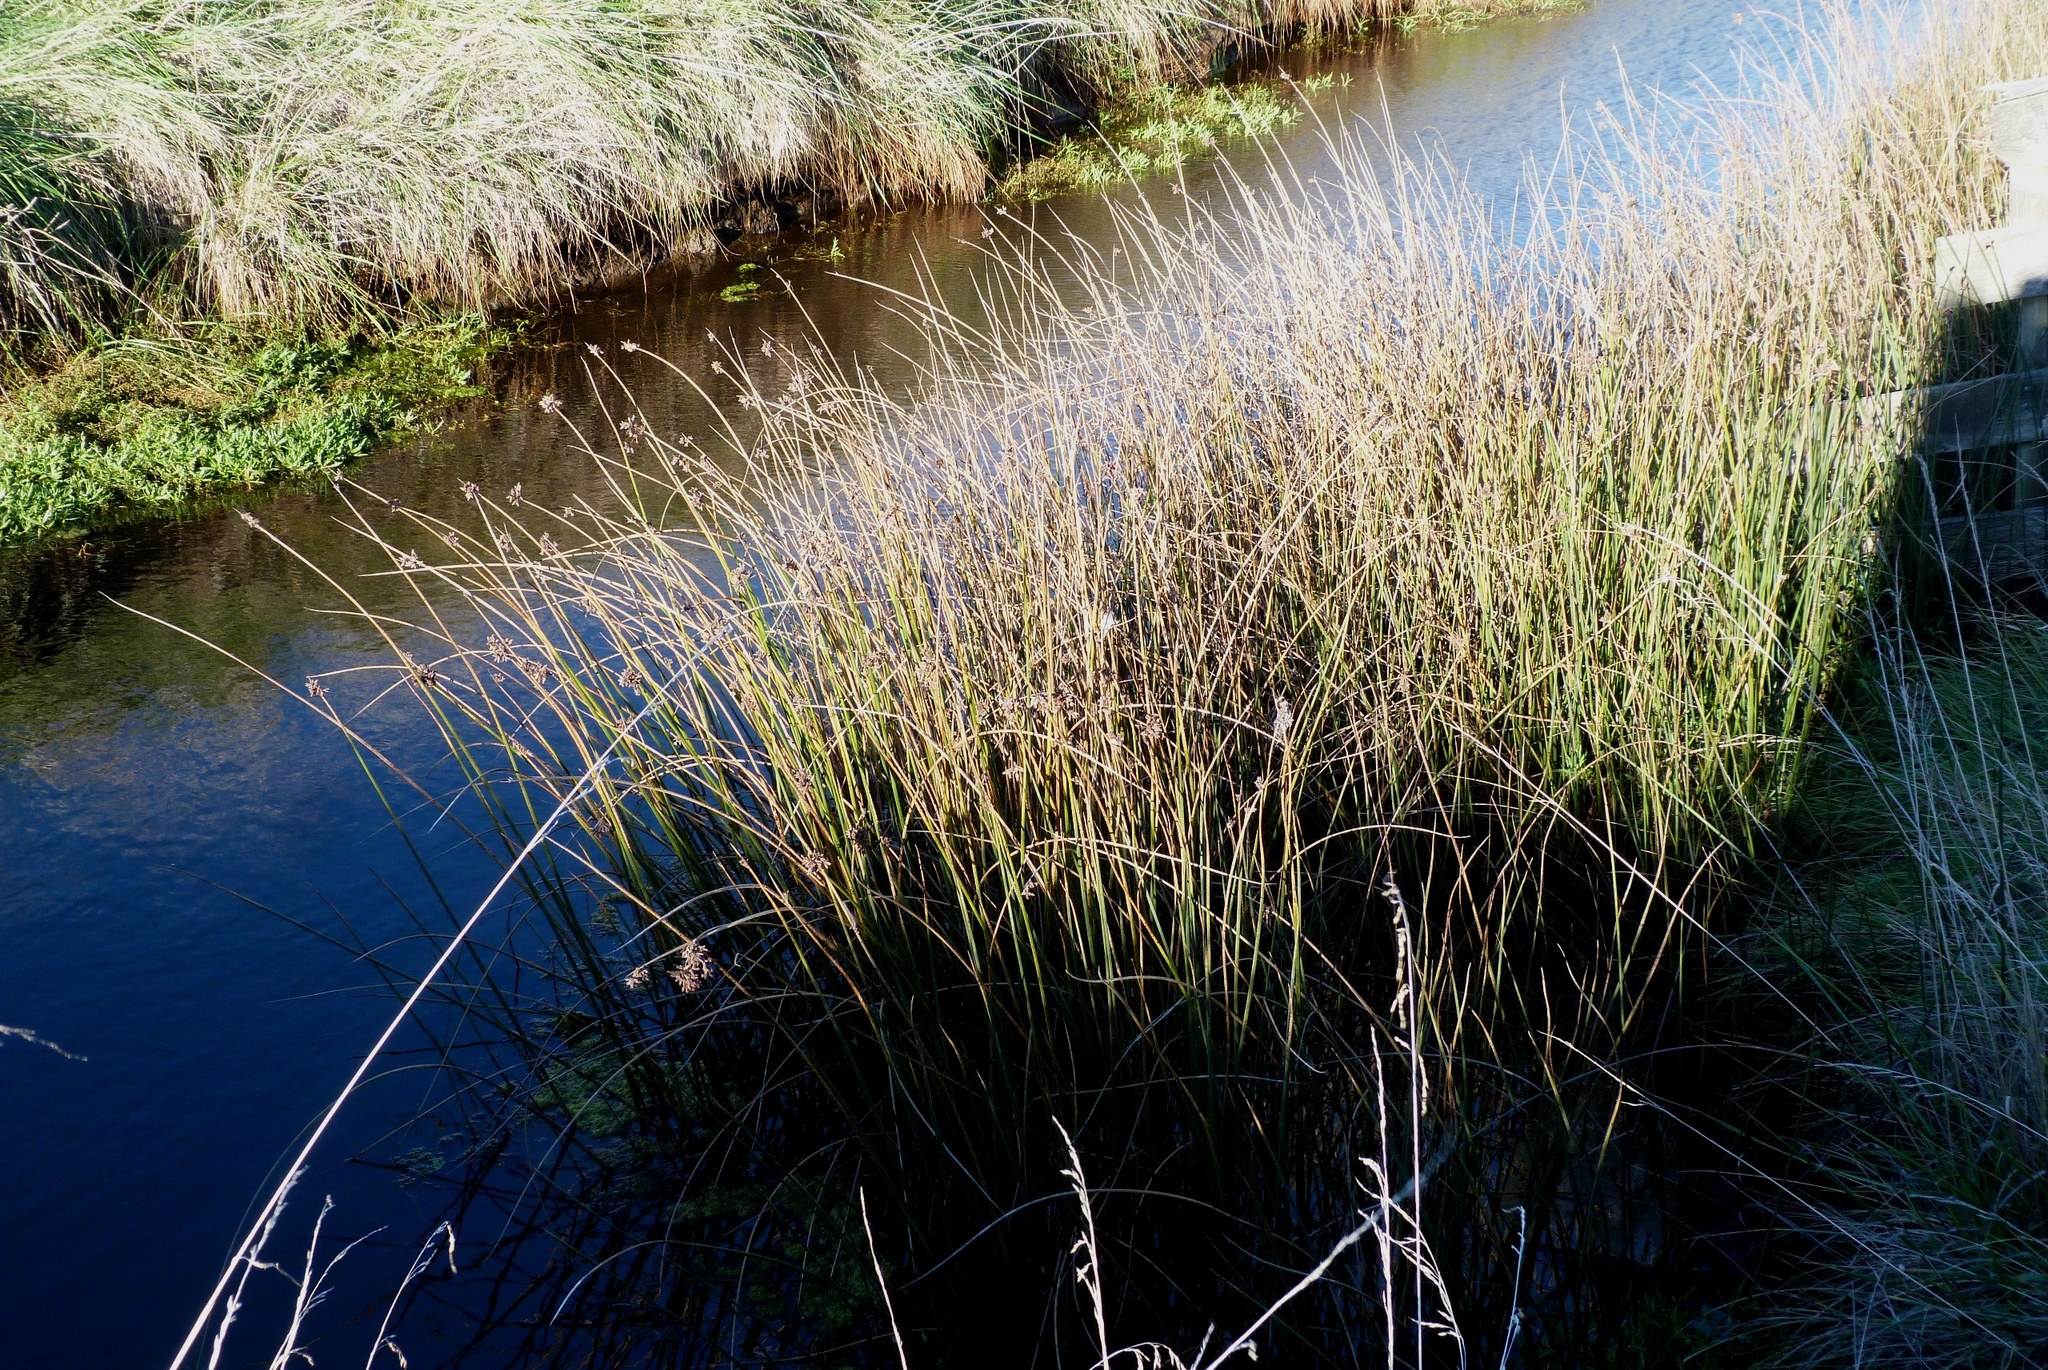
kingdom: Plantae
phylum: Tracheophyta
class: Liliopsida
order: Poales
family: Cyperaceae
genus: Schoenoplectus
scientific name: Schoenoplectus tabernaemontani
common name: Grey club-rush
